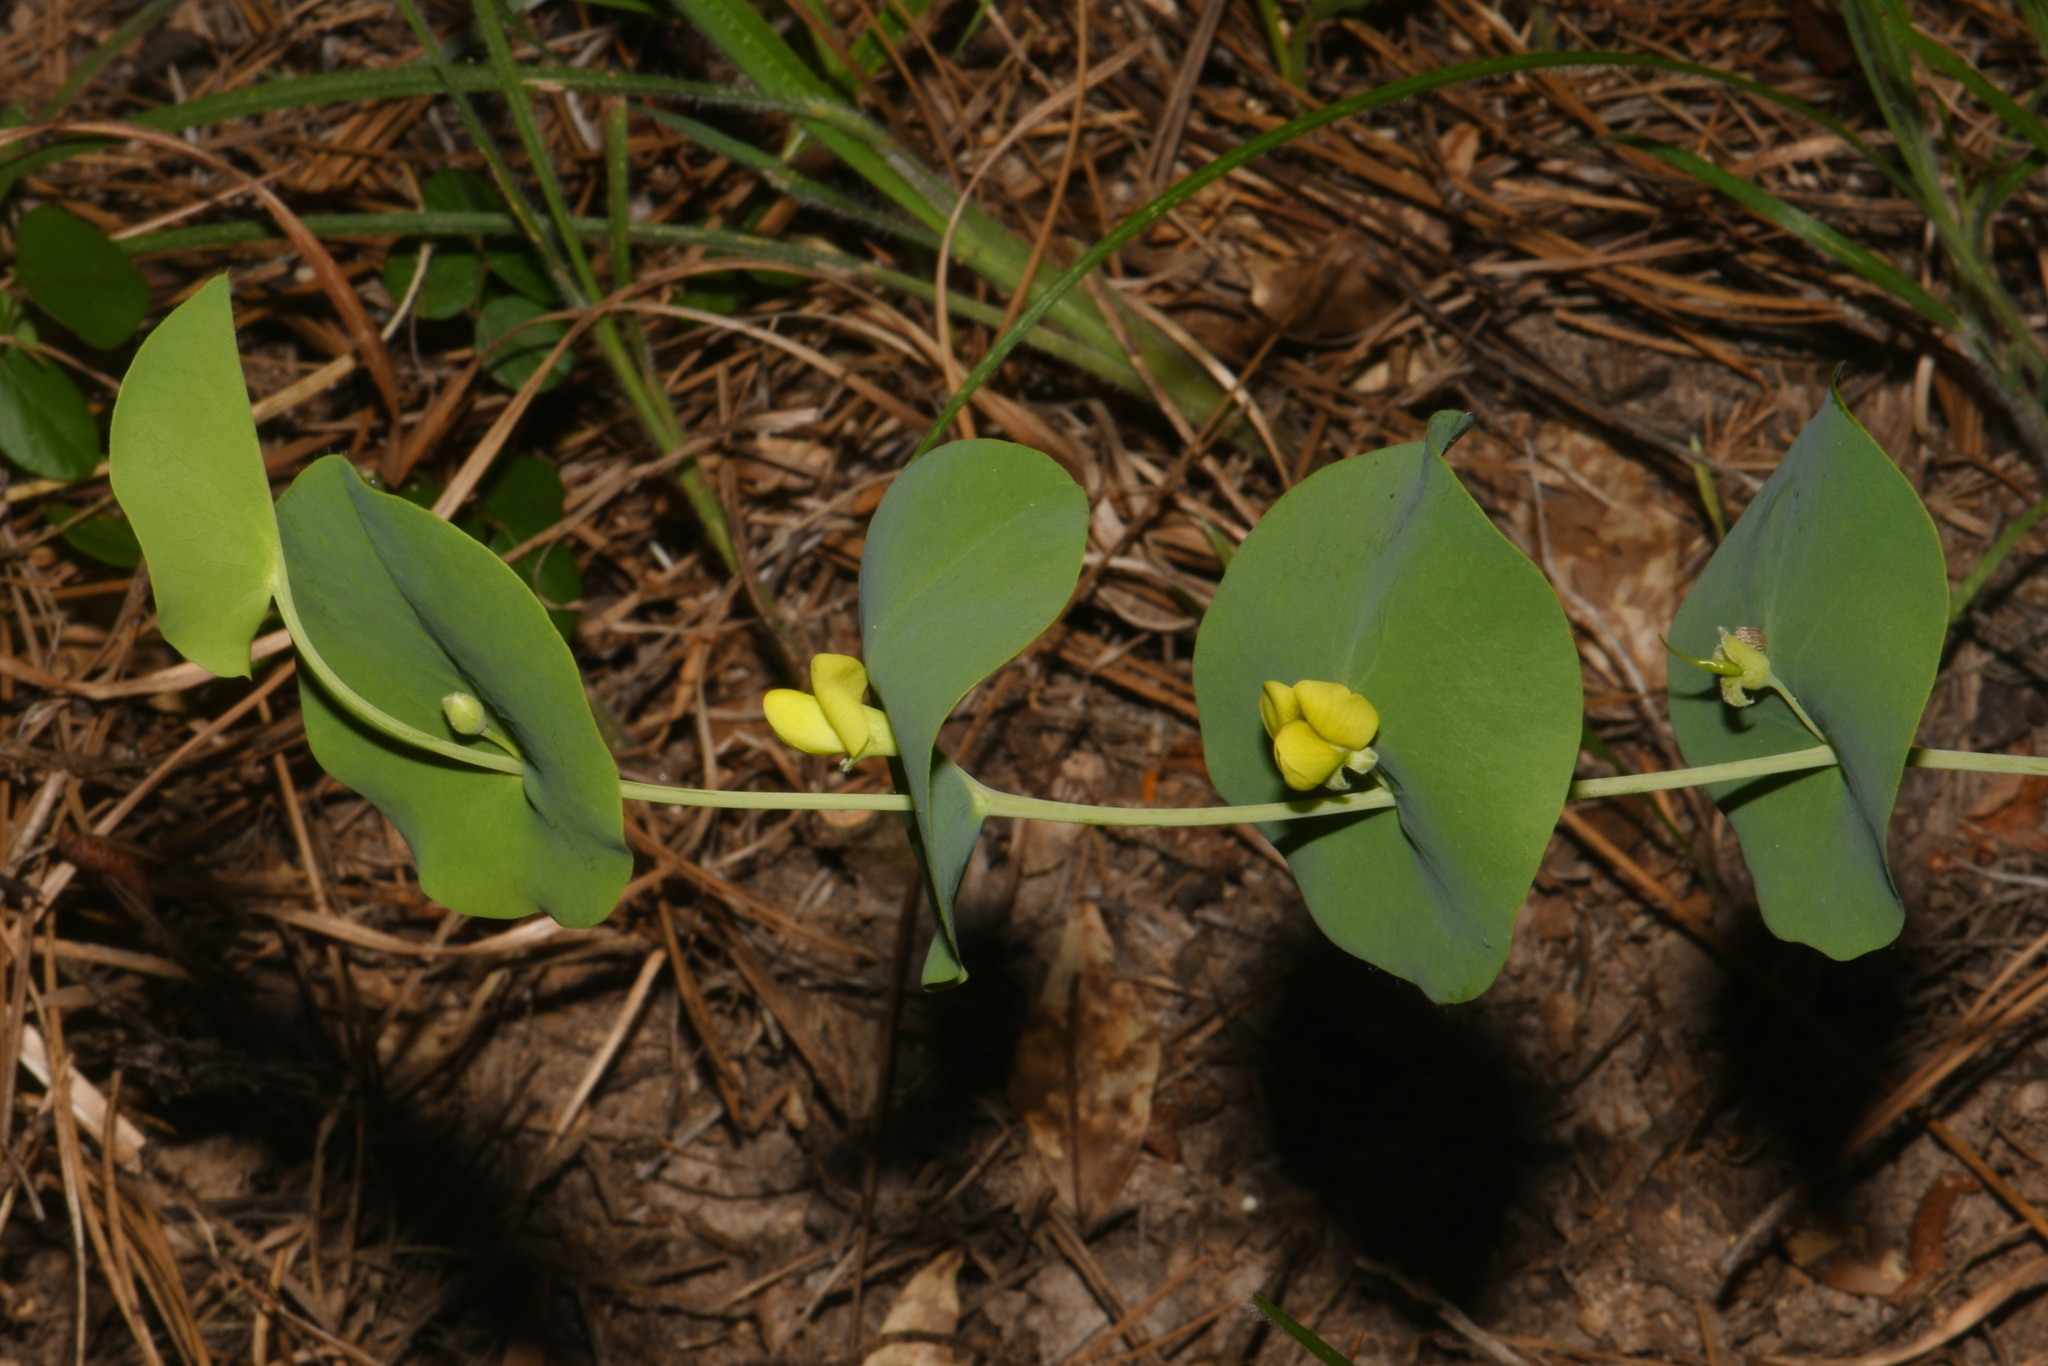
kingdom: Plantae
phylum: Tracheophyta
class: Magnoliopsida
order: Fabales
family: Fabaceae
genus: Baptisia
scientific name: Baptisia perfoliata
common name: Catbells
